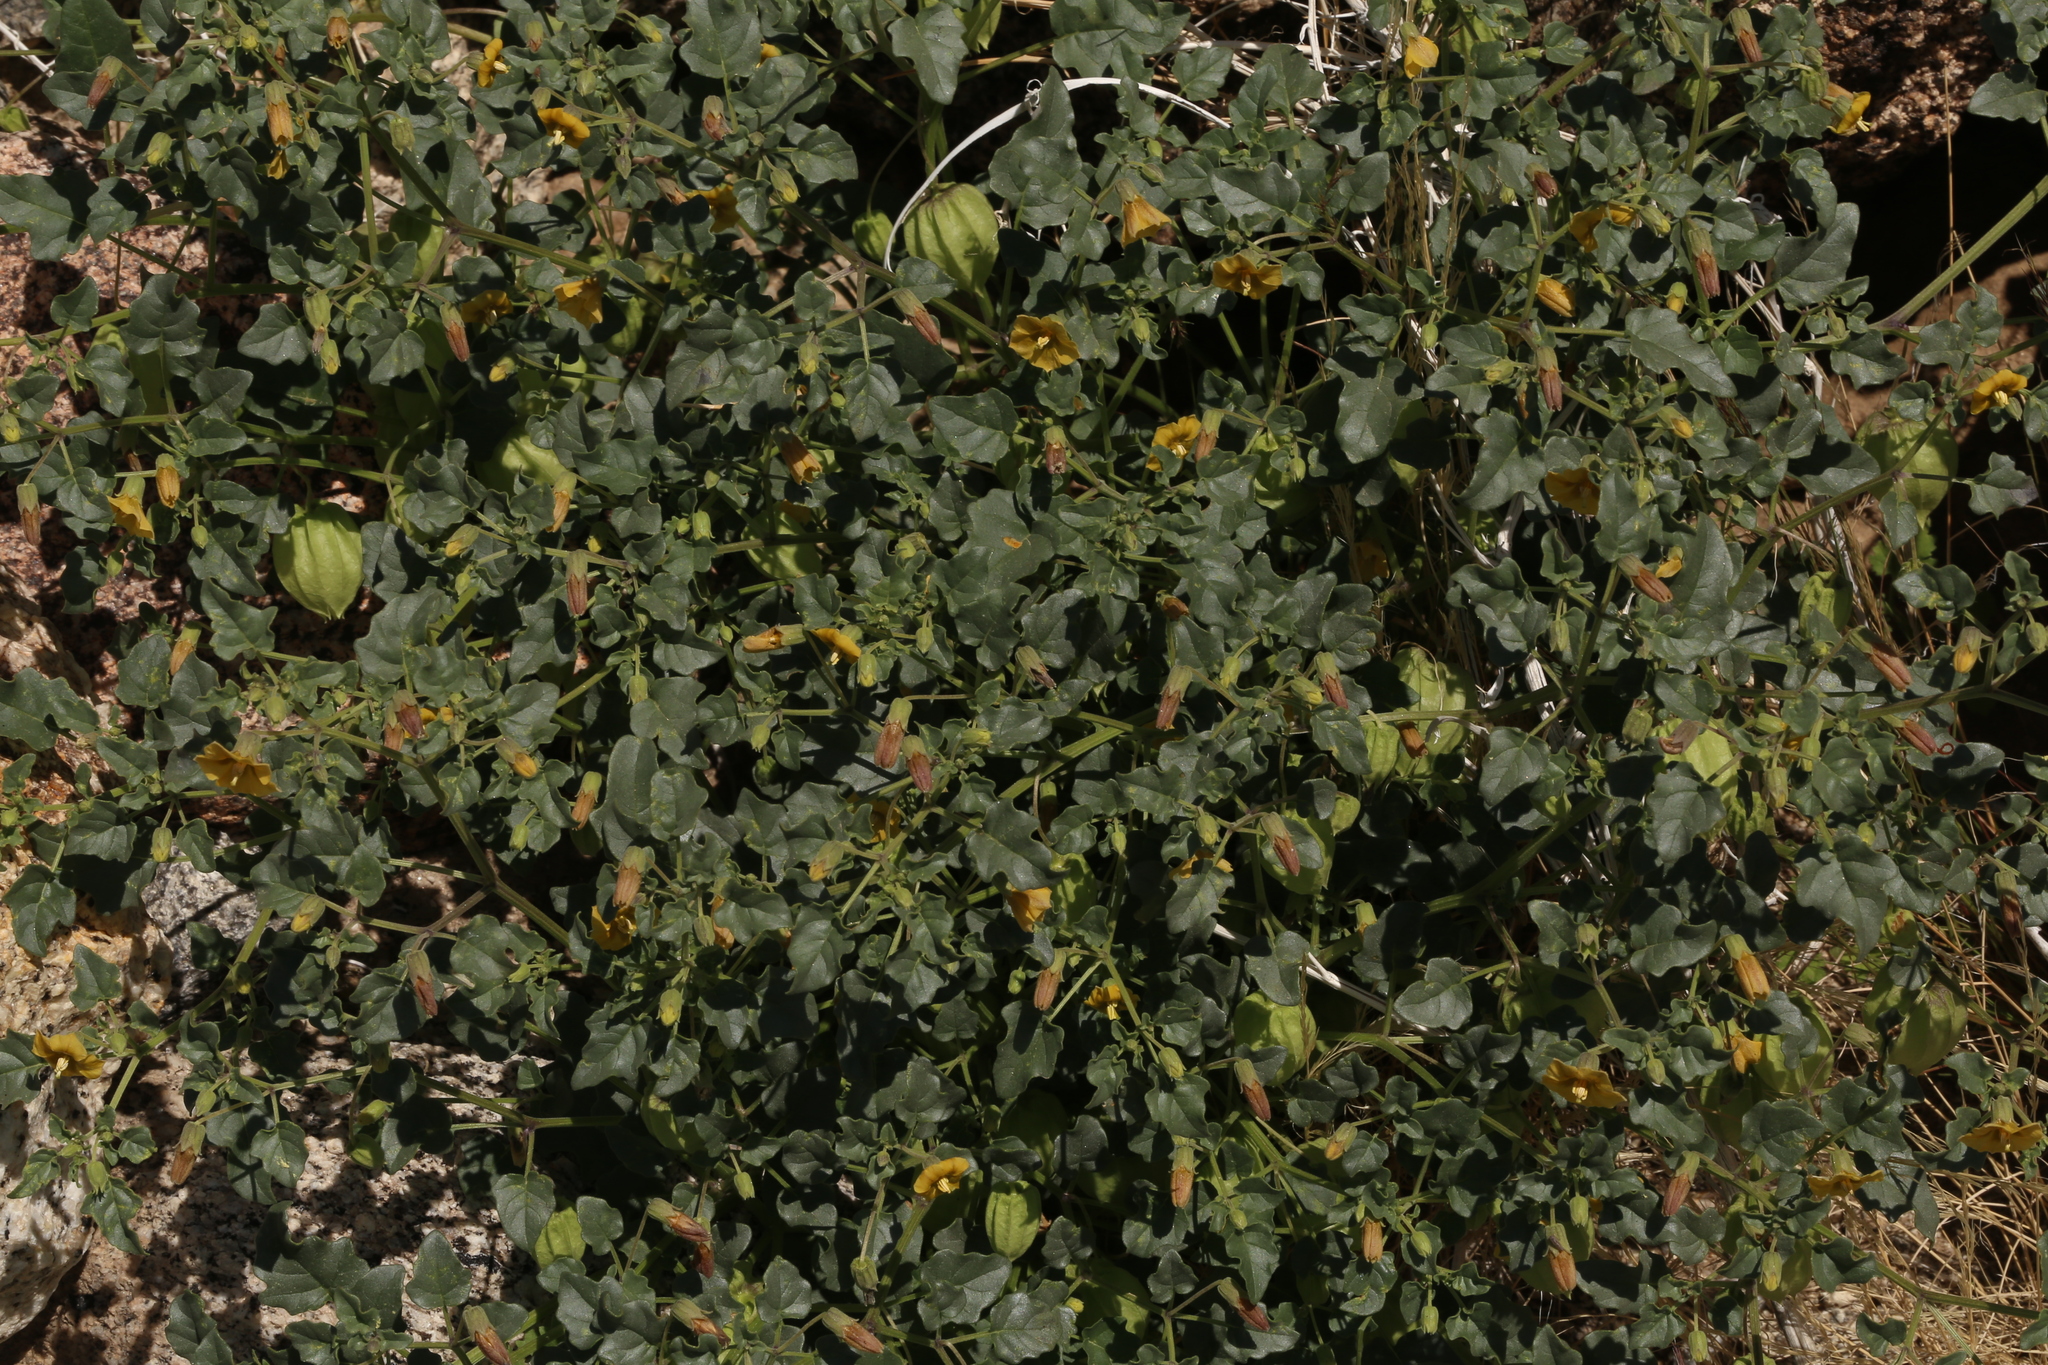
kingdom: Plantae
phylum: Tracheophyta
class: Magnoliopsida
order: Solanales
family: Solanaceae
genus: Physalis
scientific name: Physalis crassifolia
